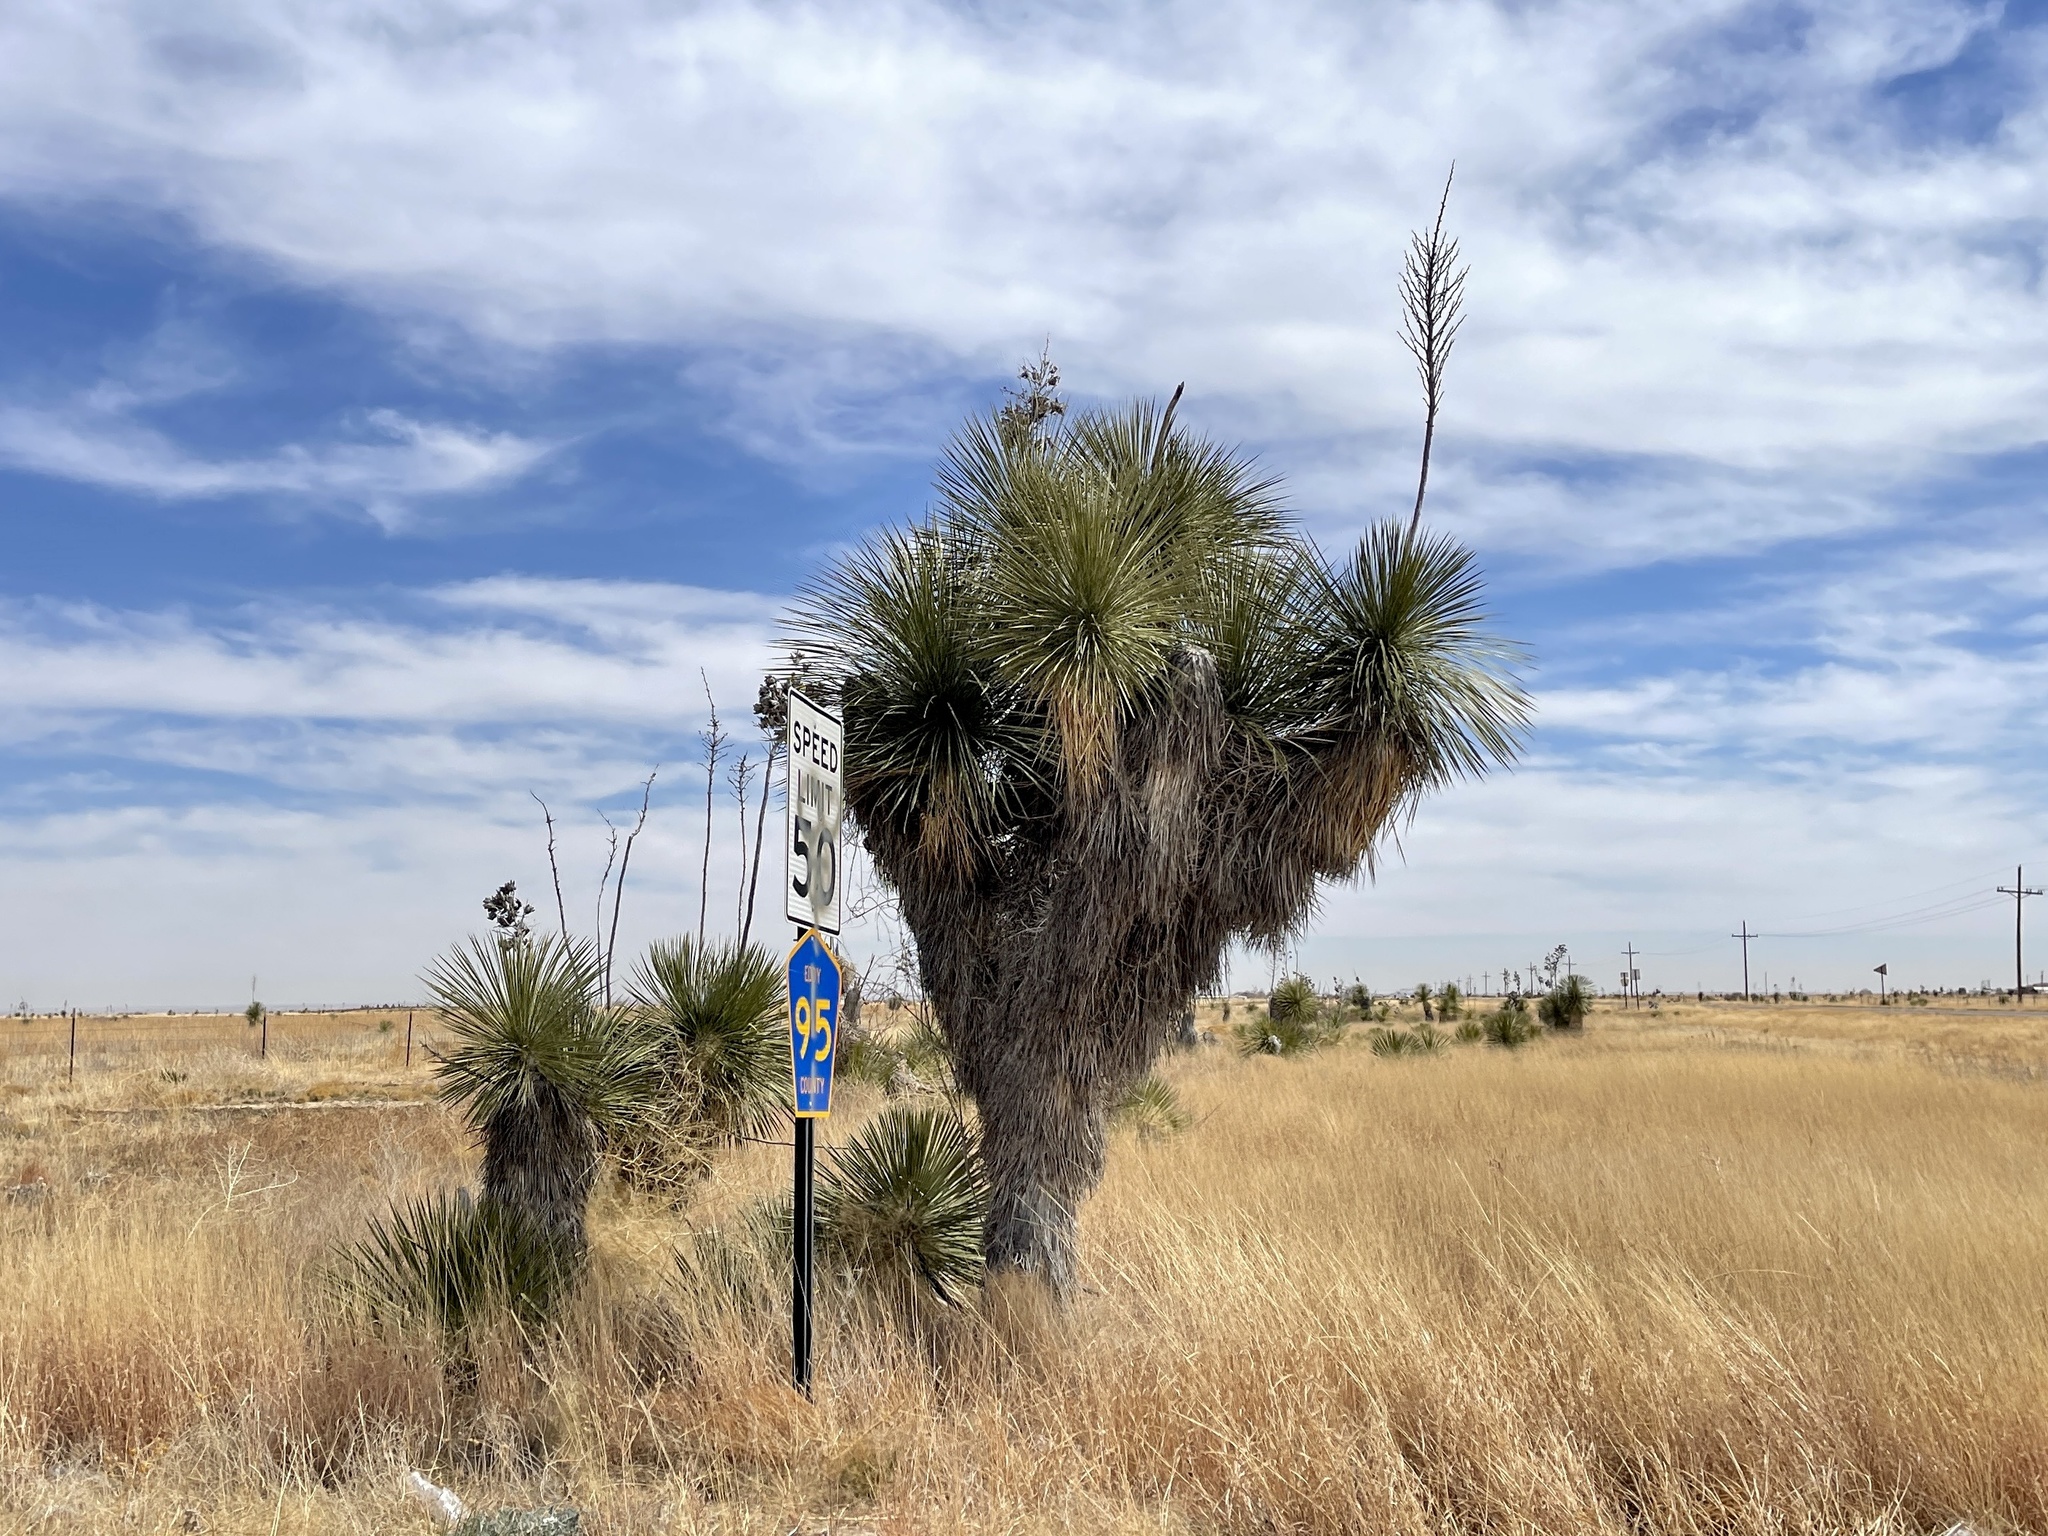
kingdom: Plantae
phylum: Tracheophyta
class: Liliopsida
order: Asparagales
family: Asparagaceae
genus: Yucca
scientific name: Yucca elata
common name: Palmella
